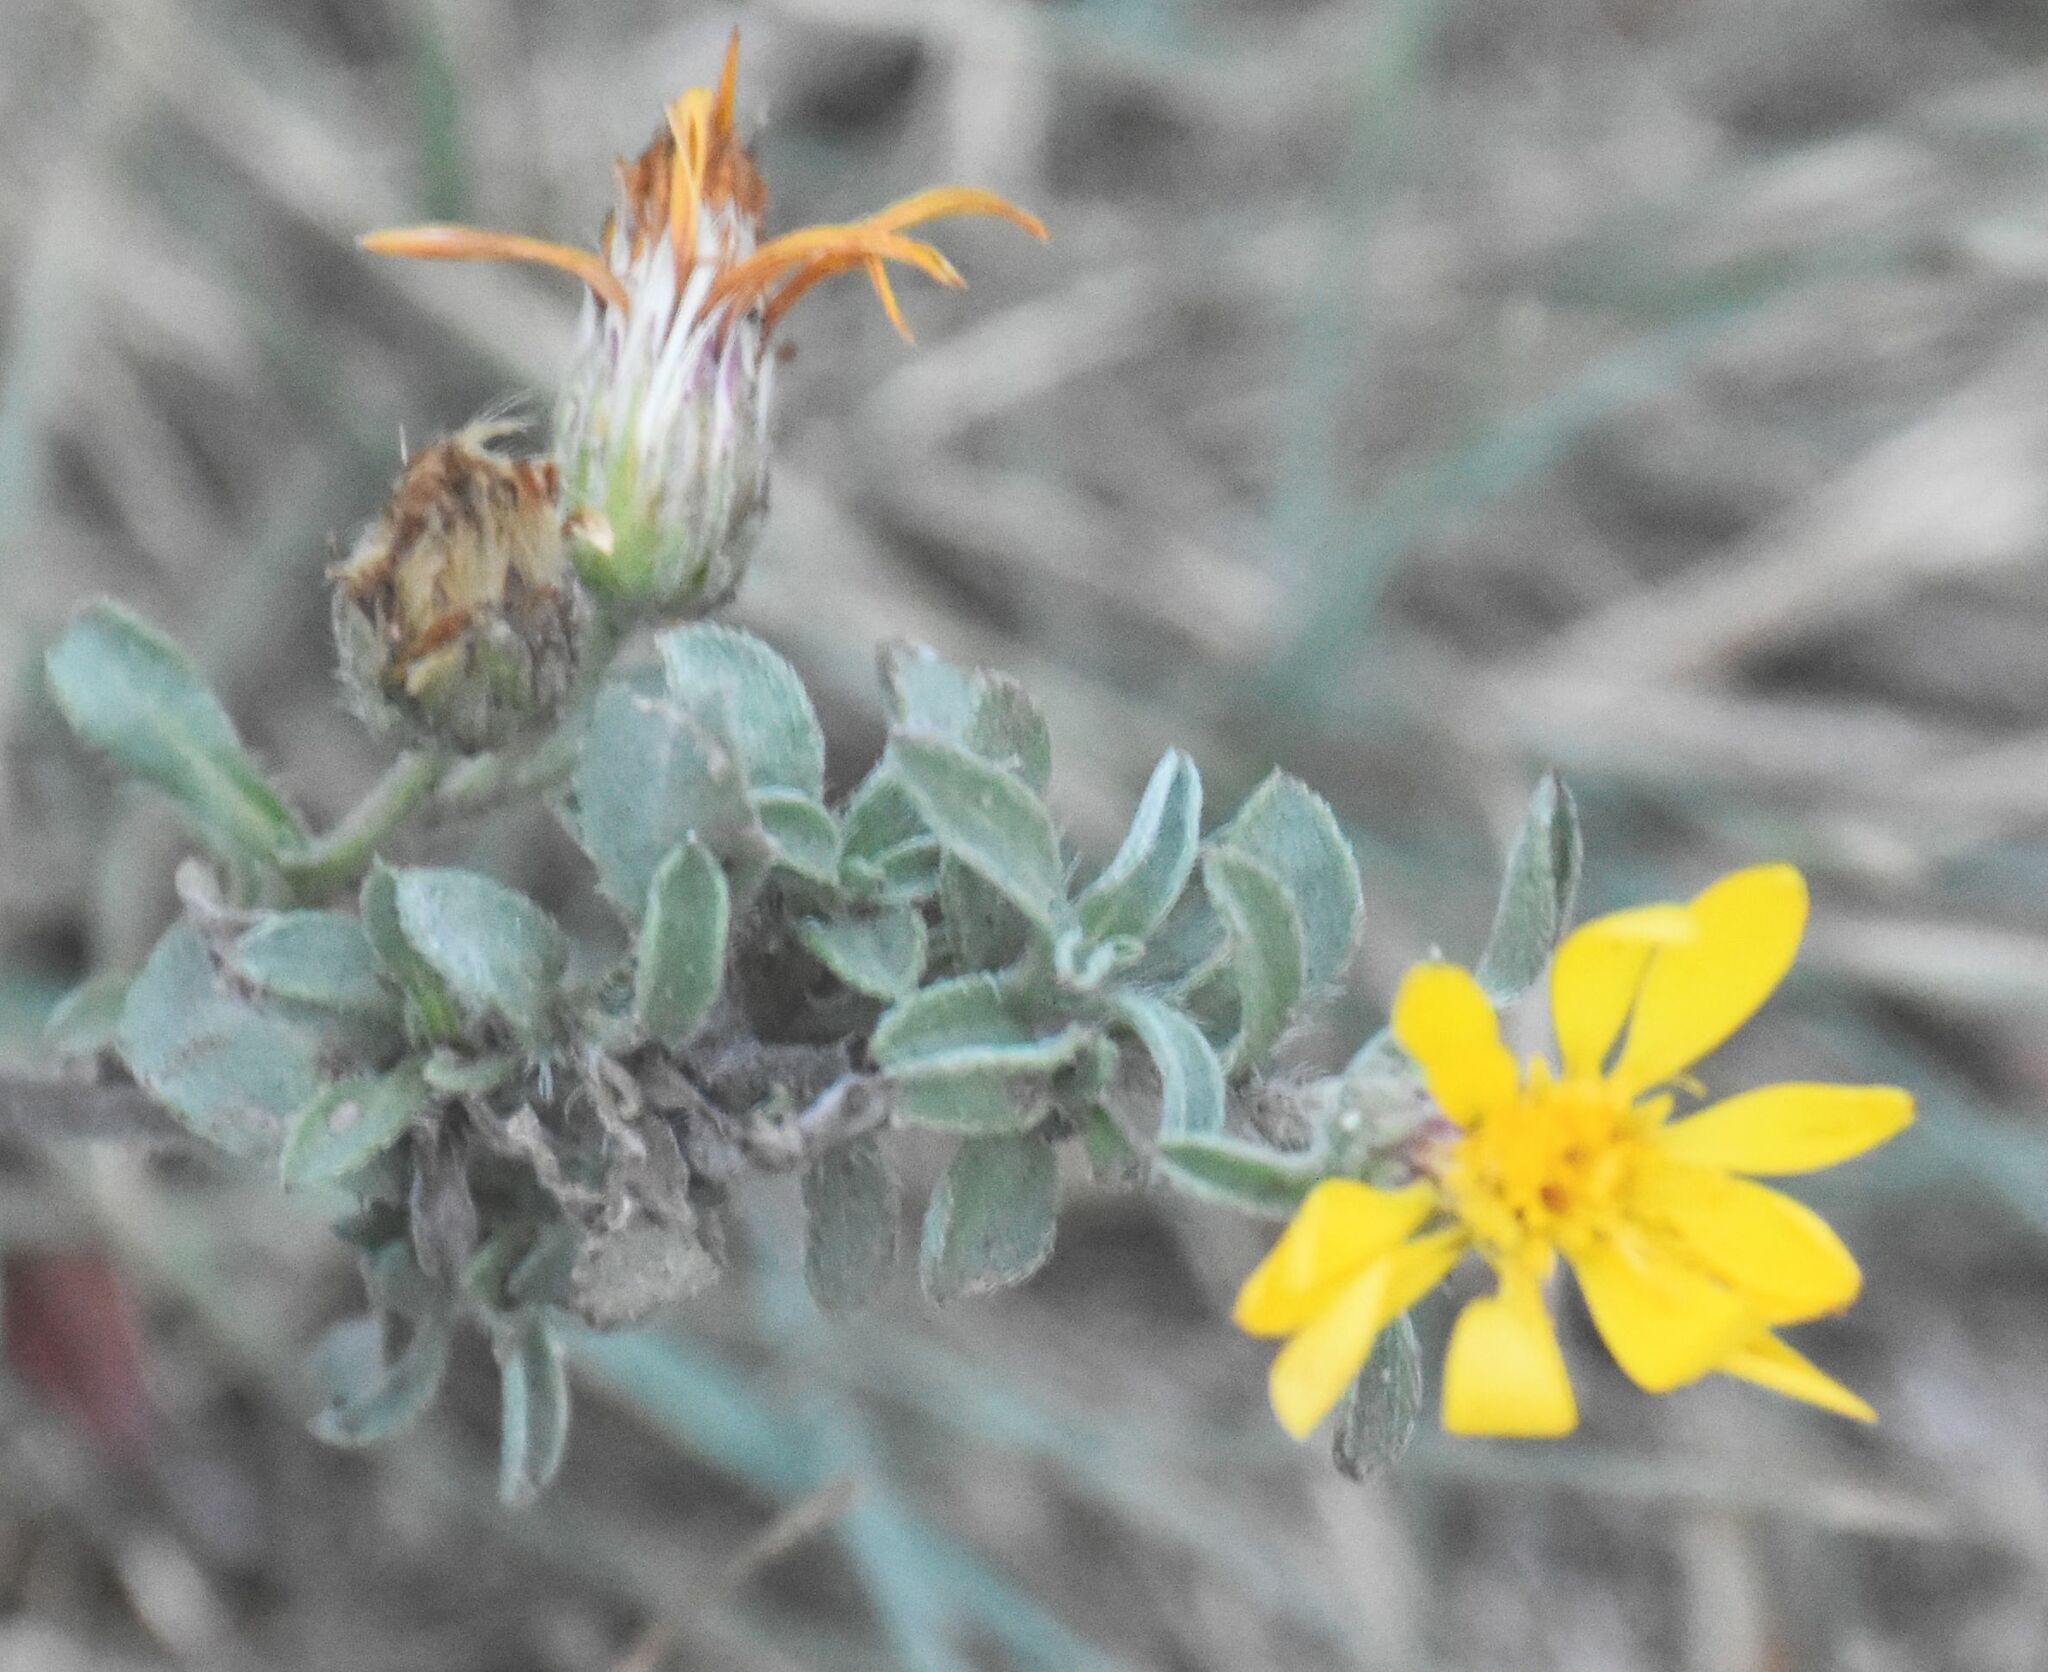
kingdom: Plantae
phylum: Tracheophyta
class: Magnoliopsida
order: Asterales
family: Asteraceae
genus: Heterotheca
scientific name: Heterotheca villosa
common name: Hairy false goldenaster
